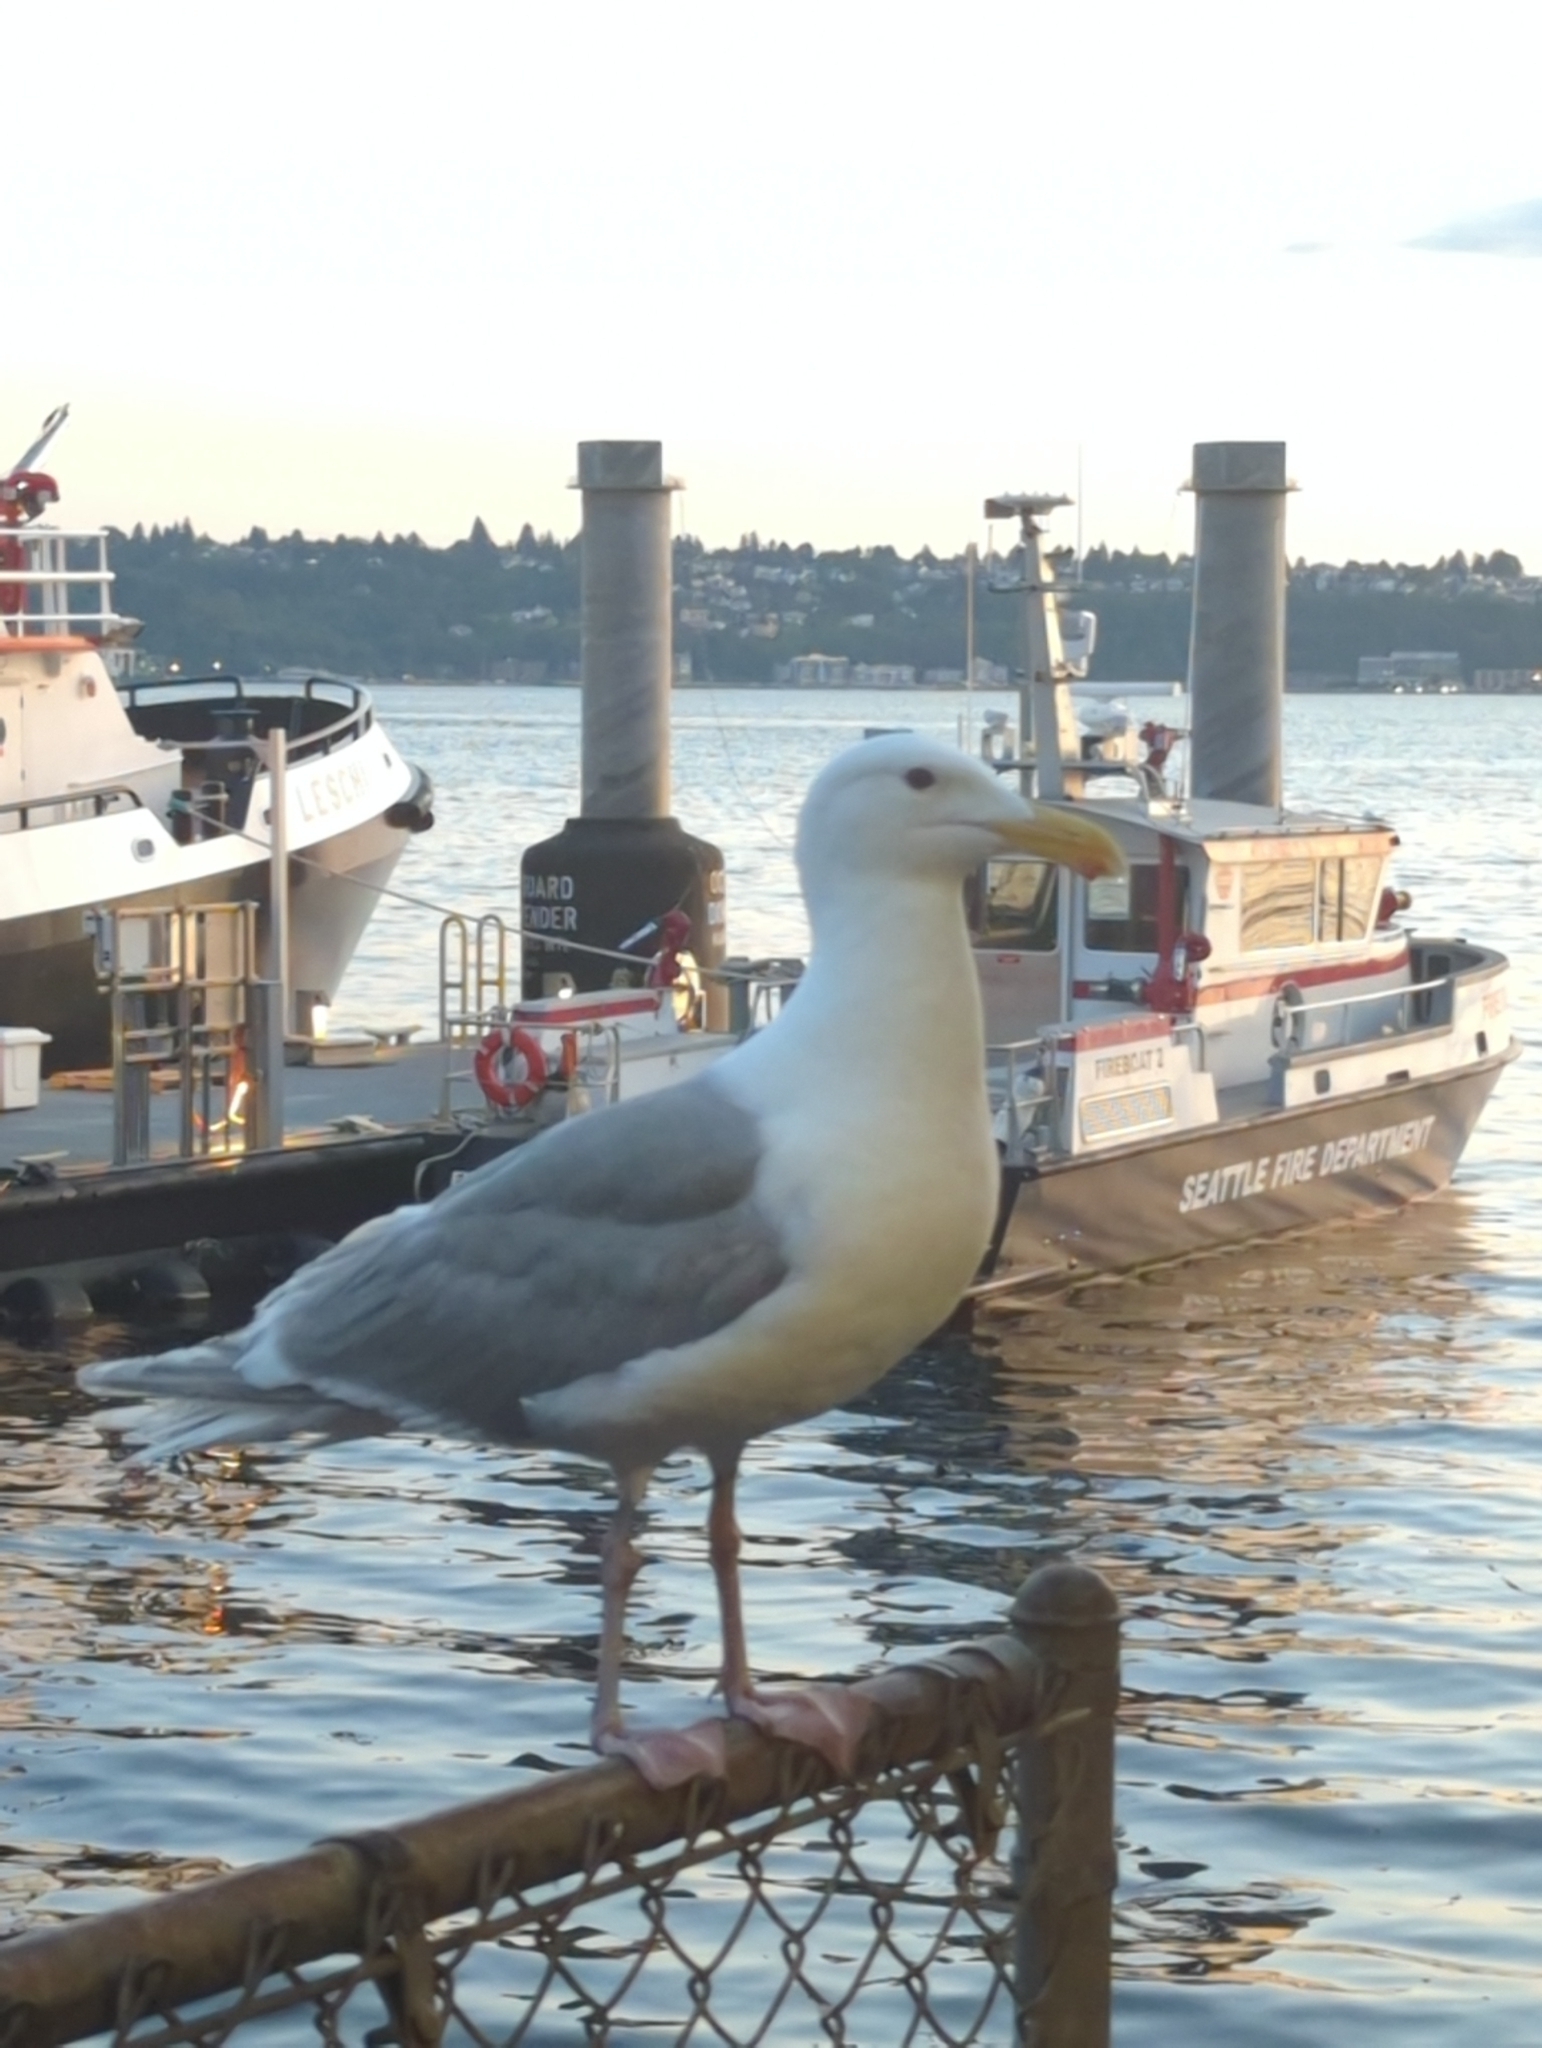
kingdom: Animalia
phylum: Chordata
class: Aves
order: Charadriiformes
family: Laridae
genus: Larus
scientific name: Larus glaucescens
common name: Glaucous-winged gull
